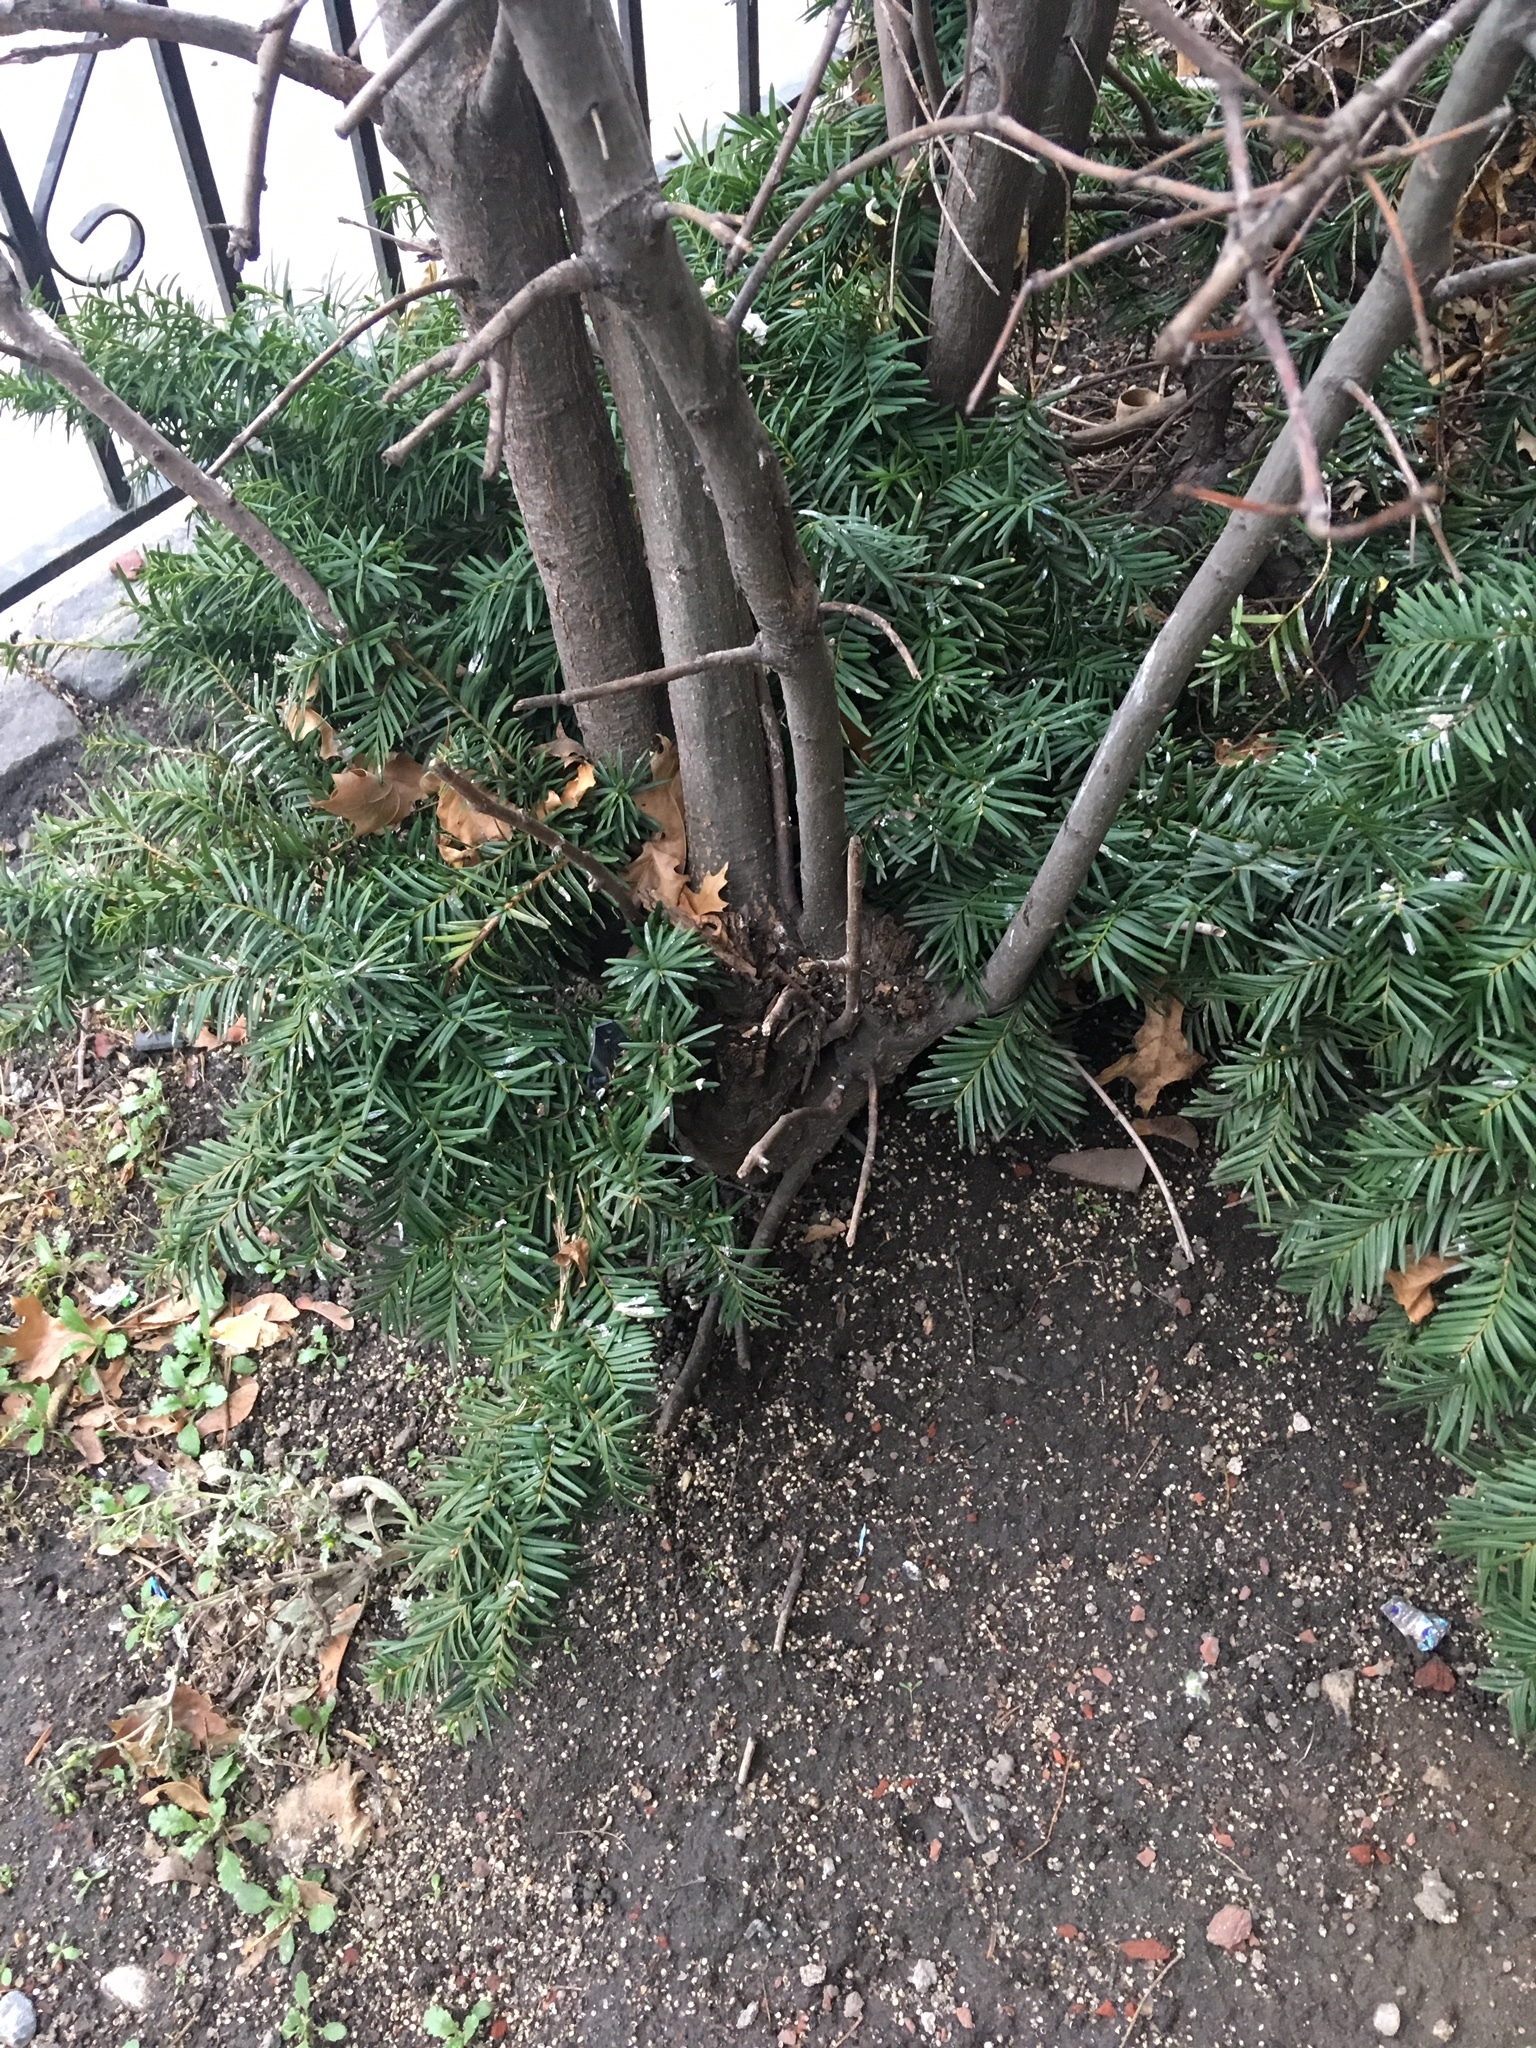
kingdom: Plantae
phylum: Tracheophyta
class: Magnoliopsida
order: Fagales
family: Fagaceae
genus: Quercus
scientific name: Quercus palustris
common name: Pin oak
